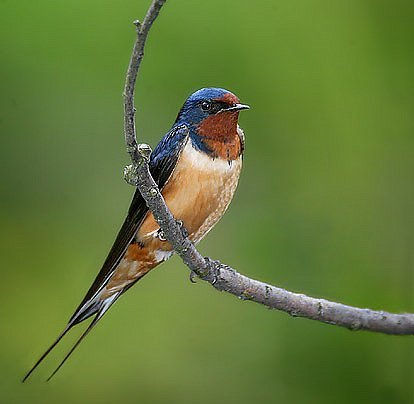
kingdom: Animalia
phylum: Chordata
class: Aves
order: Passeriformes
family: Hirundinidae
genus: Hirundo
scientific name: Hirundo rustica
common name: Barn swallow
